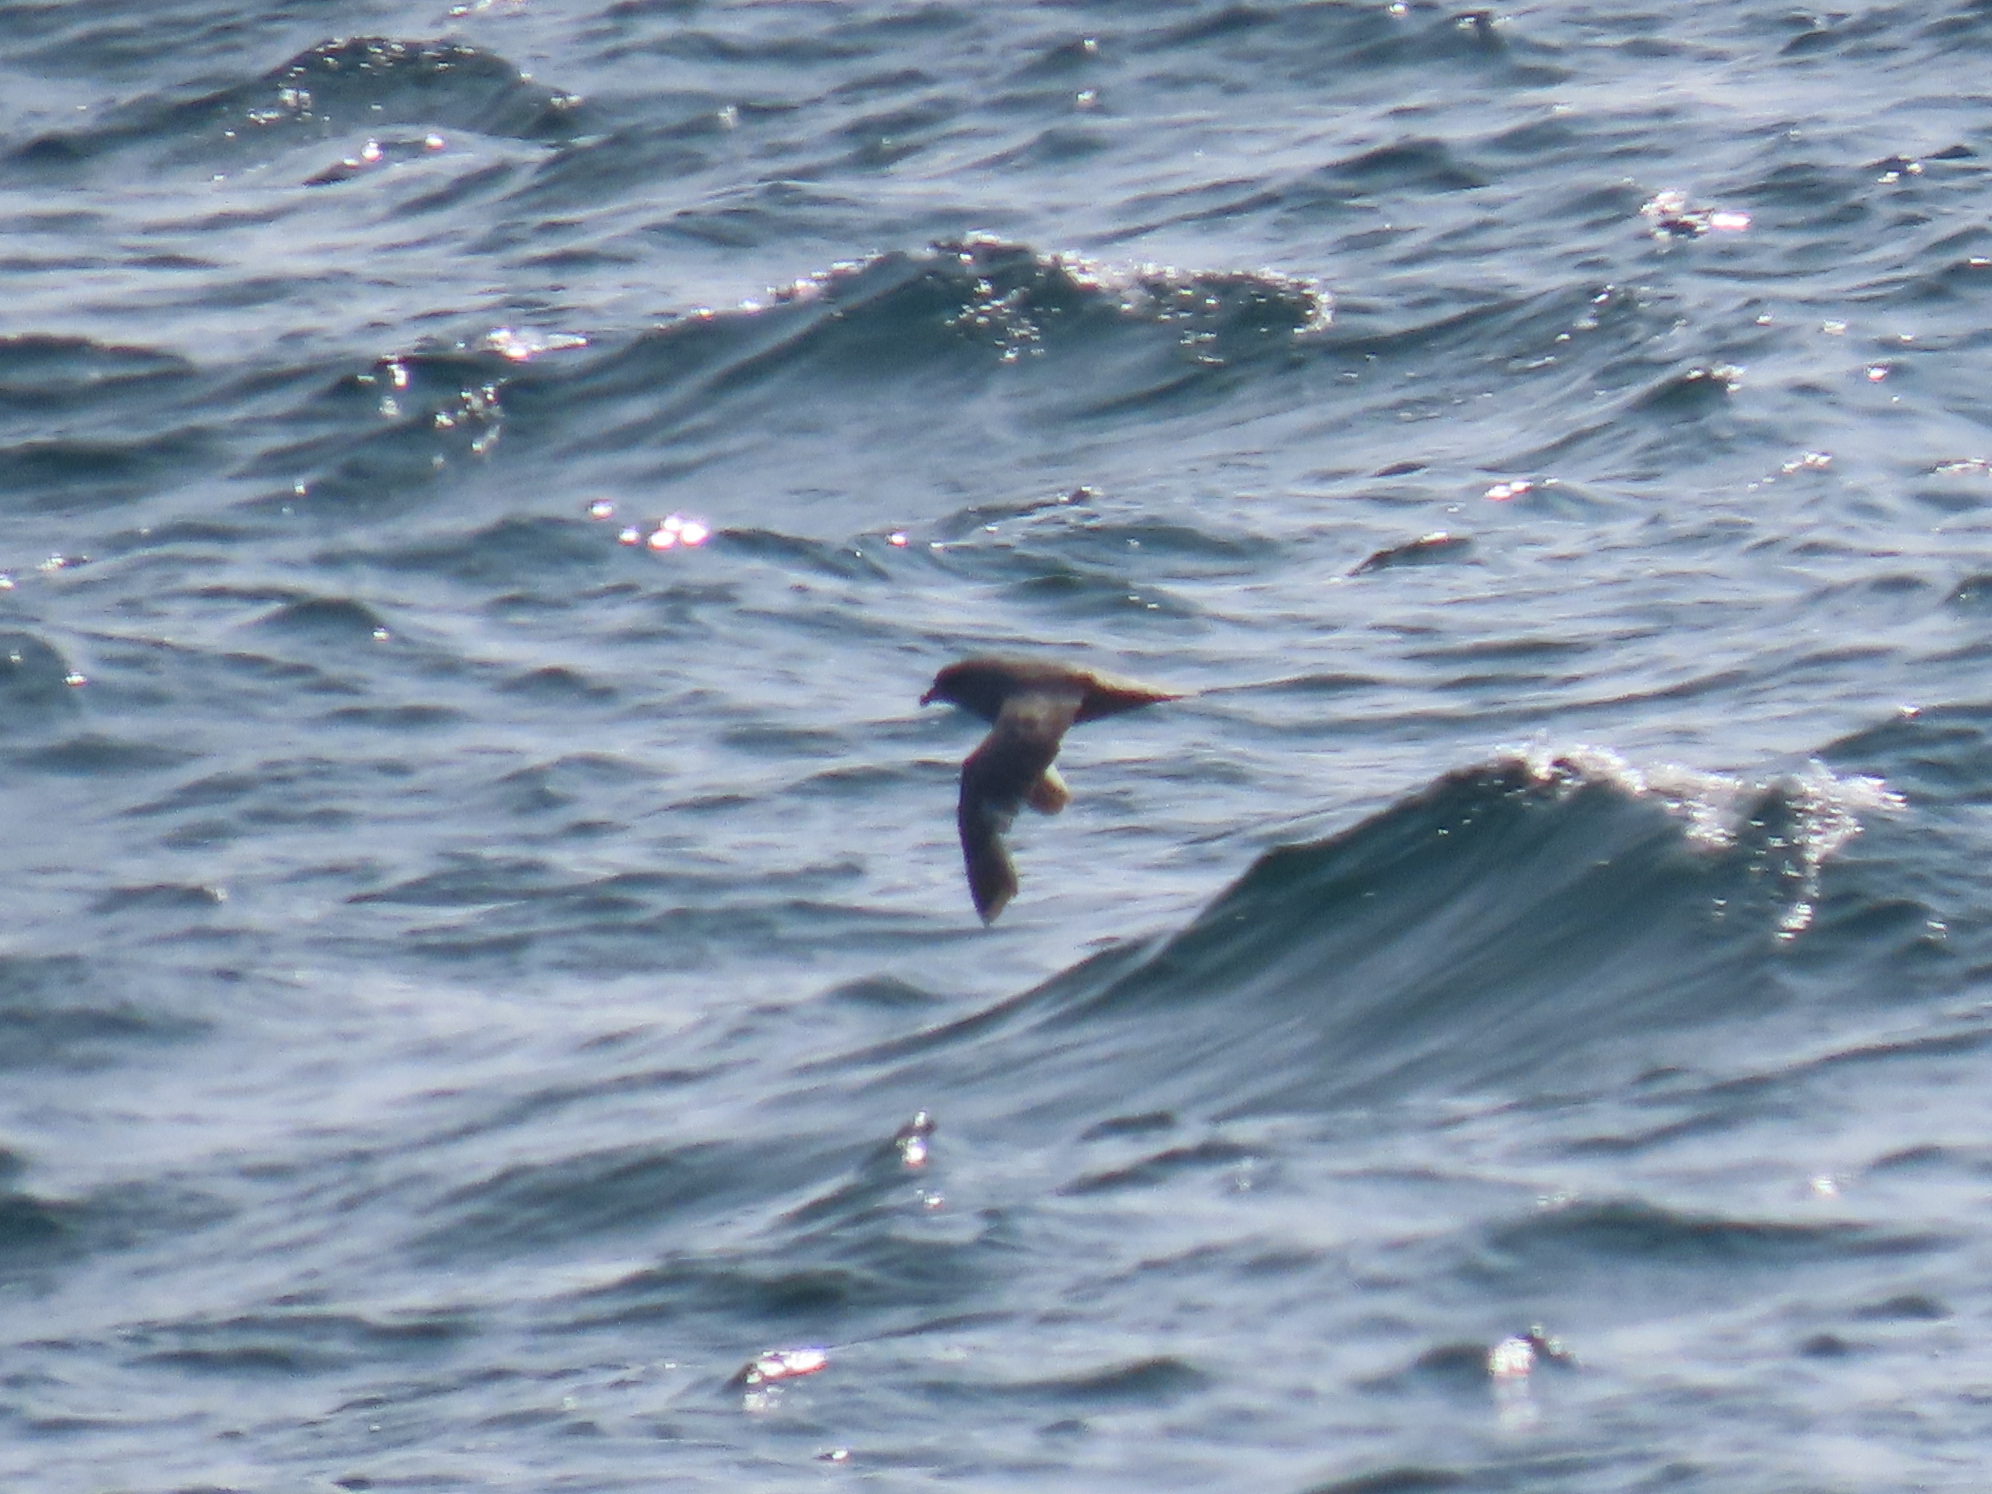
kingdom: Animalia
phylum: Chordata
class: Aves
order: Procellariiformes
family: Procellariidae
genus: Fulmarus
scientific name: Fulmarus glacialis
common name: Northern fulmar
